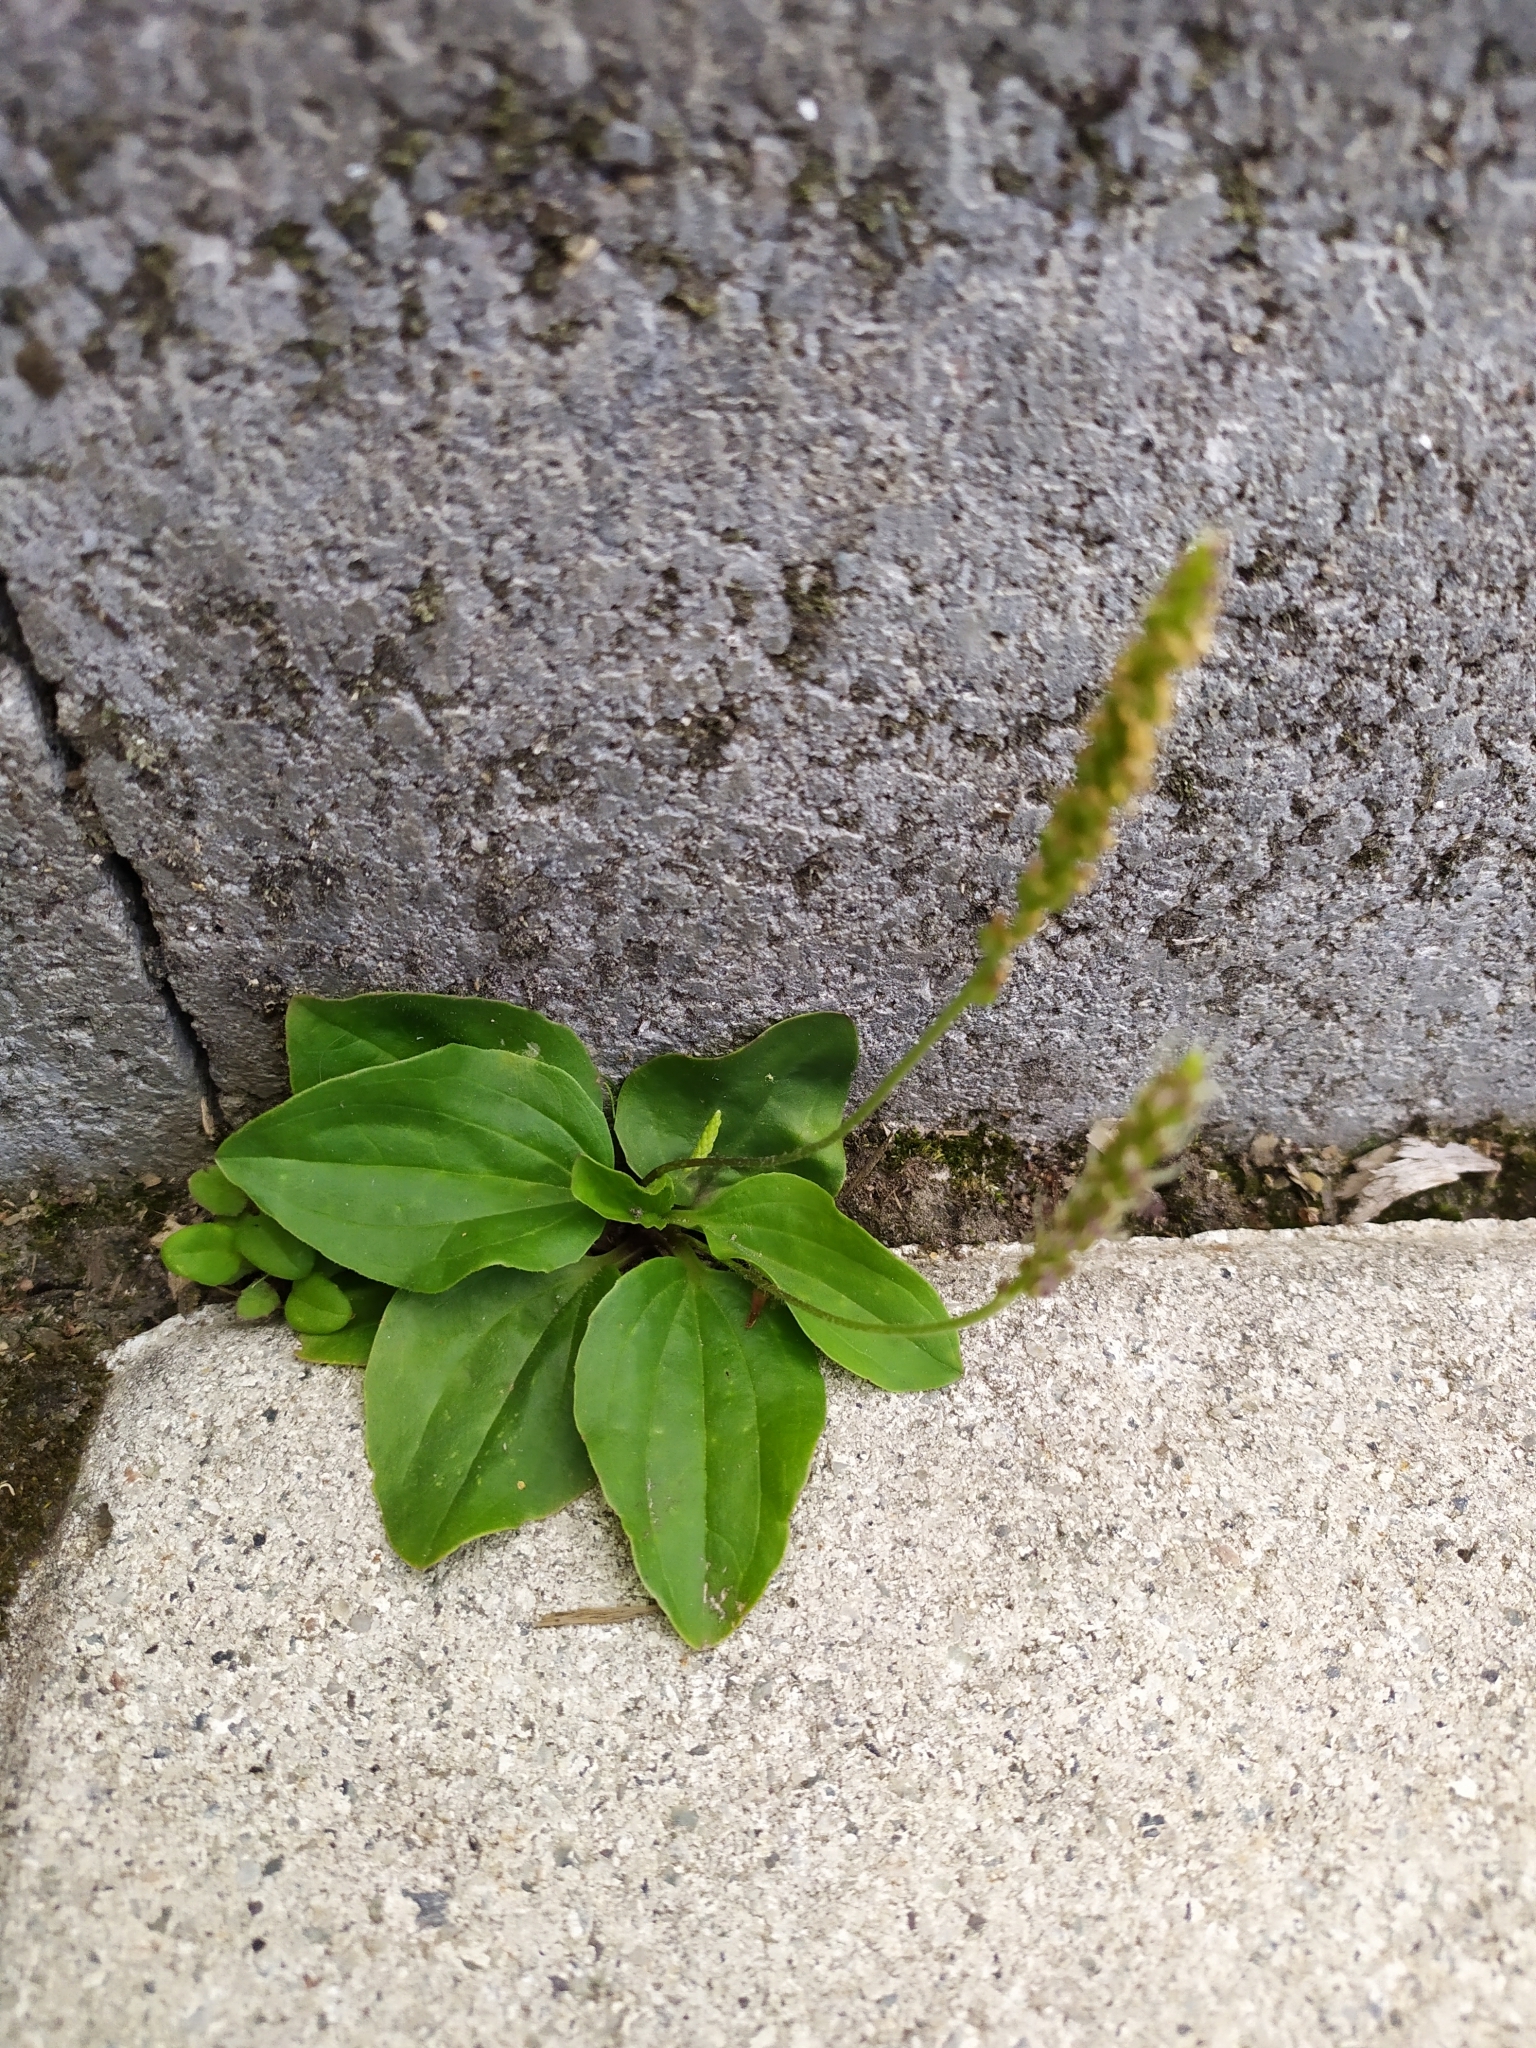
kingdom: Plantae
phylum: Tracheophyta
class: Magnoliopsida
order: Lamiales
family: Plantaginaceae
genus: Plantago
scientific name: Plantago major
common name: Common plantain
